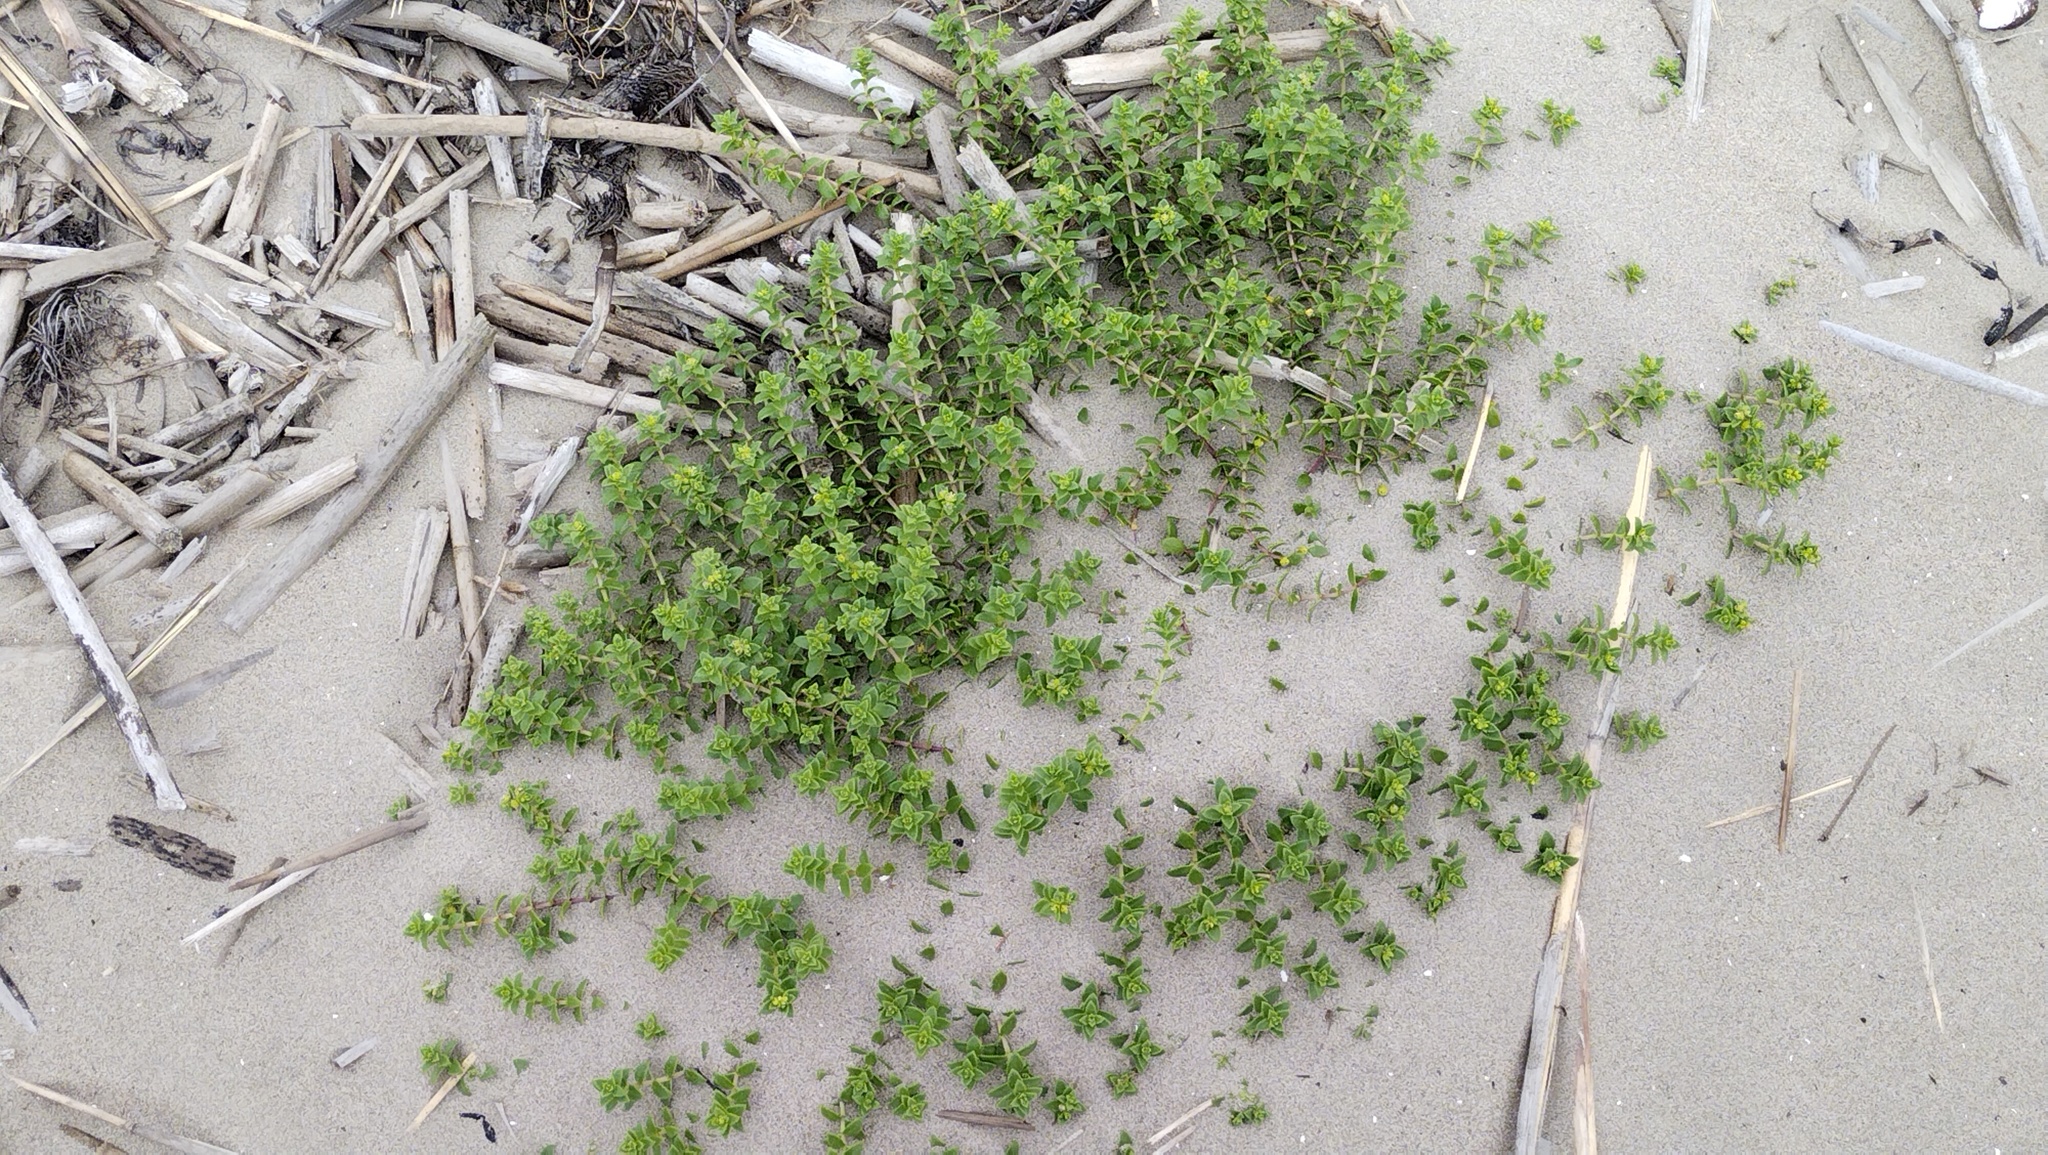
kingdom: Plantae
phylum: Tracheophyta
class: Magnoliopsida
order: Caryophyllales
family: Caryophyllaceae
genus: Honckenya
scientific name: Honckenya peploides
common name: Sea sandwort
